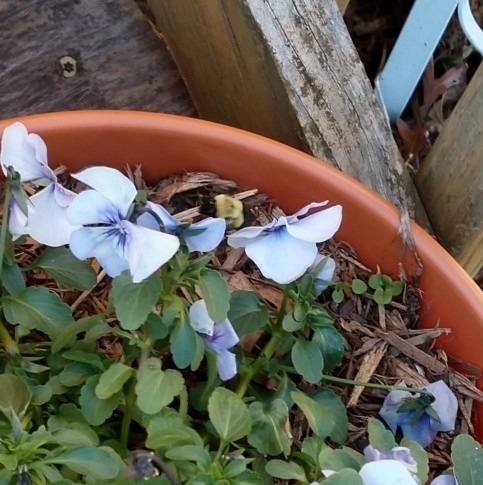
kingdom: Animalia
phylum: Arthropoda
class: Insecta
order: Hymenoptera
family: Apidae
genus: Bombus
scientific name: Bombus impatiens
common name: Common eastern bumble bee
